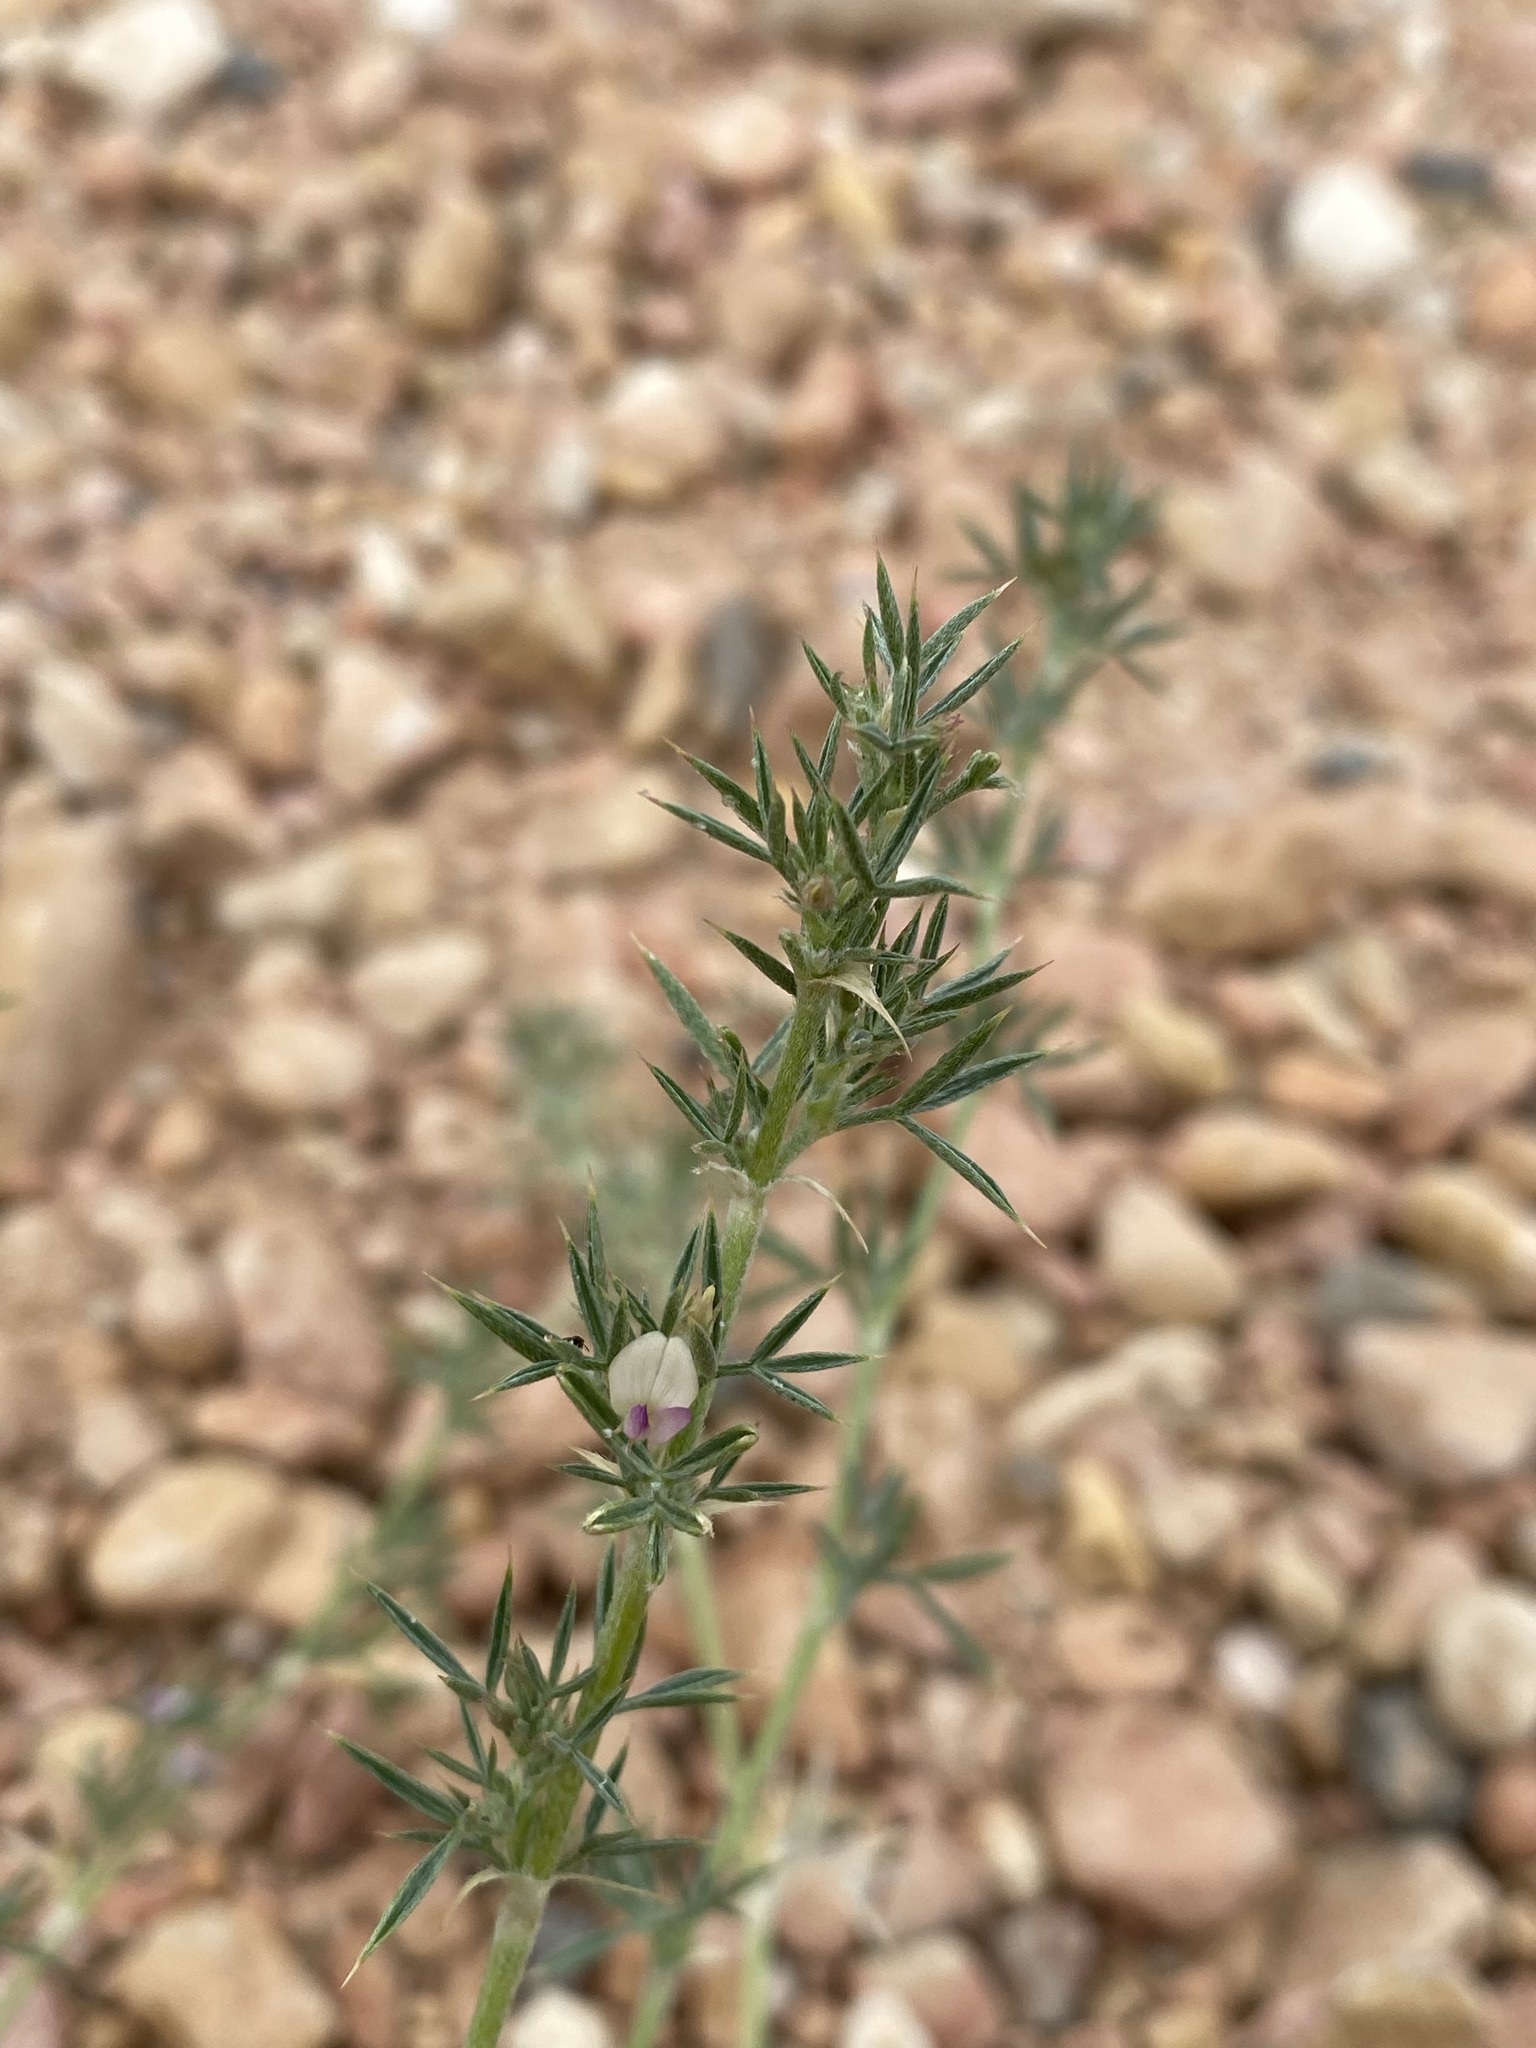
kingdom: Plantae
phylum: Tracheophyta
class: Magnoliopsida
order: Fabales
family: Fabaceae
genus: Astragalus
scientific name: Astragalus kentrophyta
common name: Prickly milk-vetch
